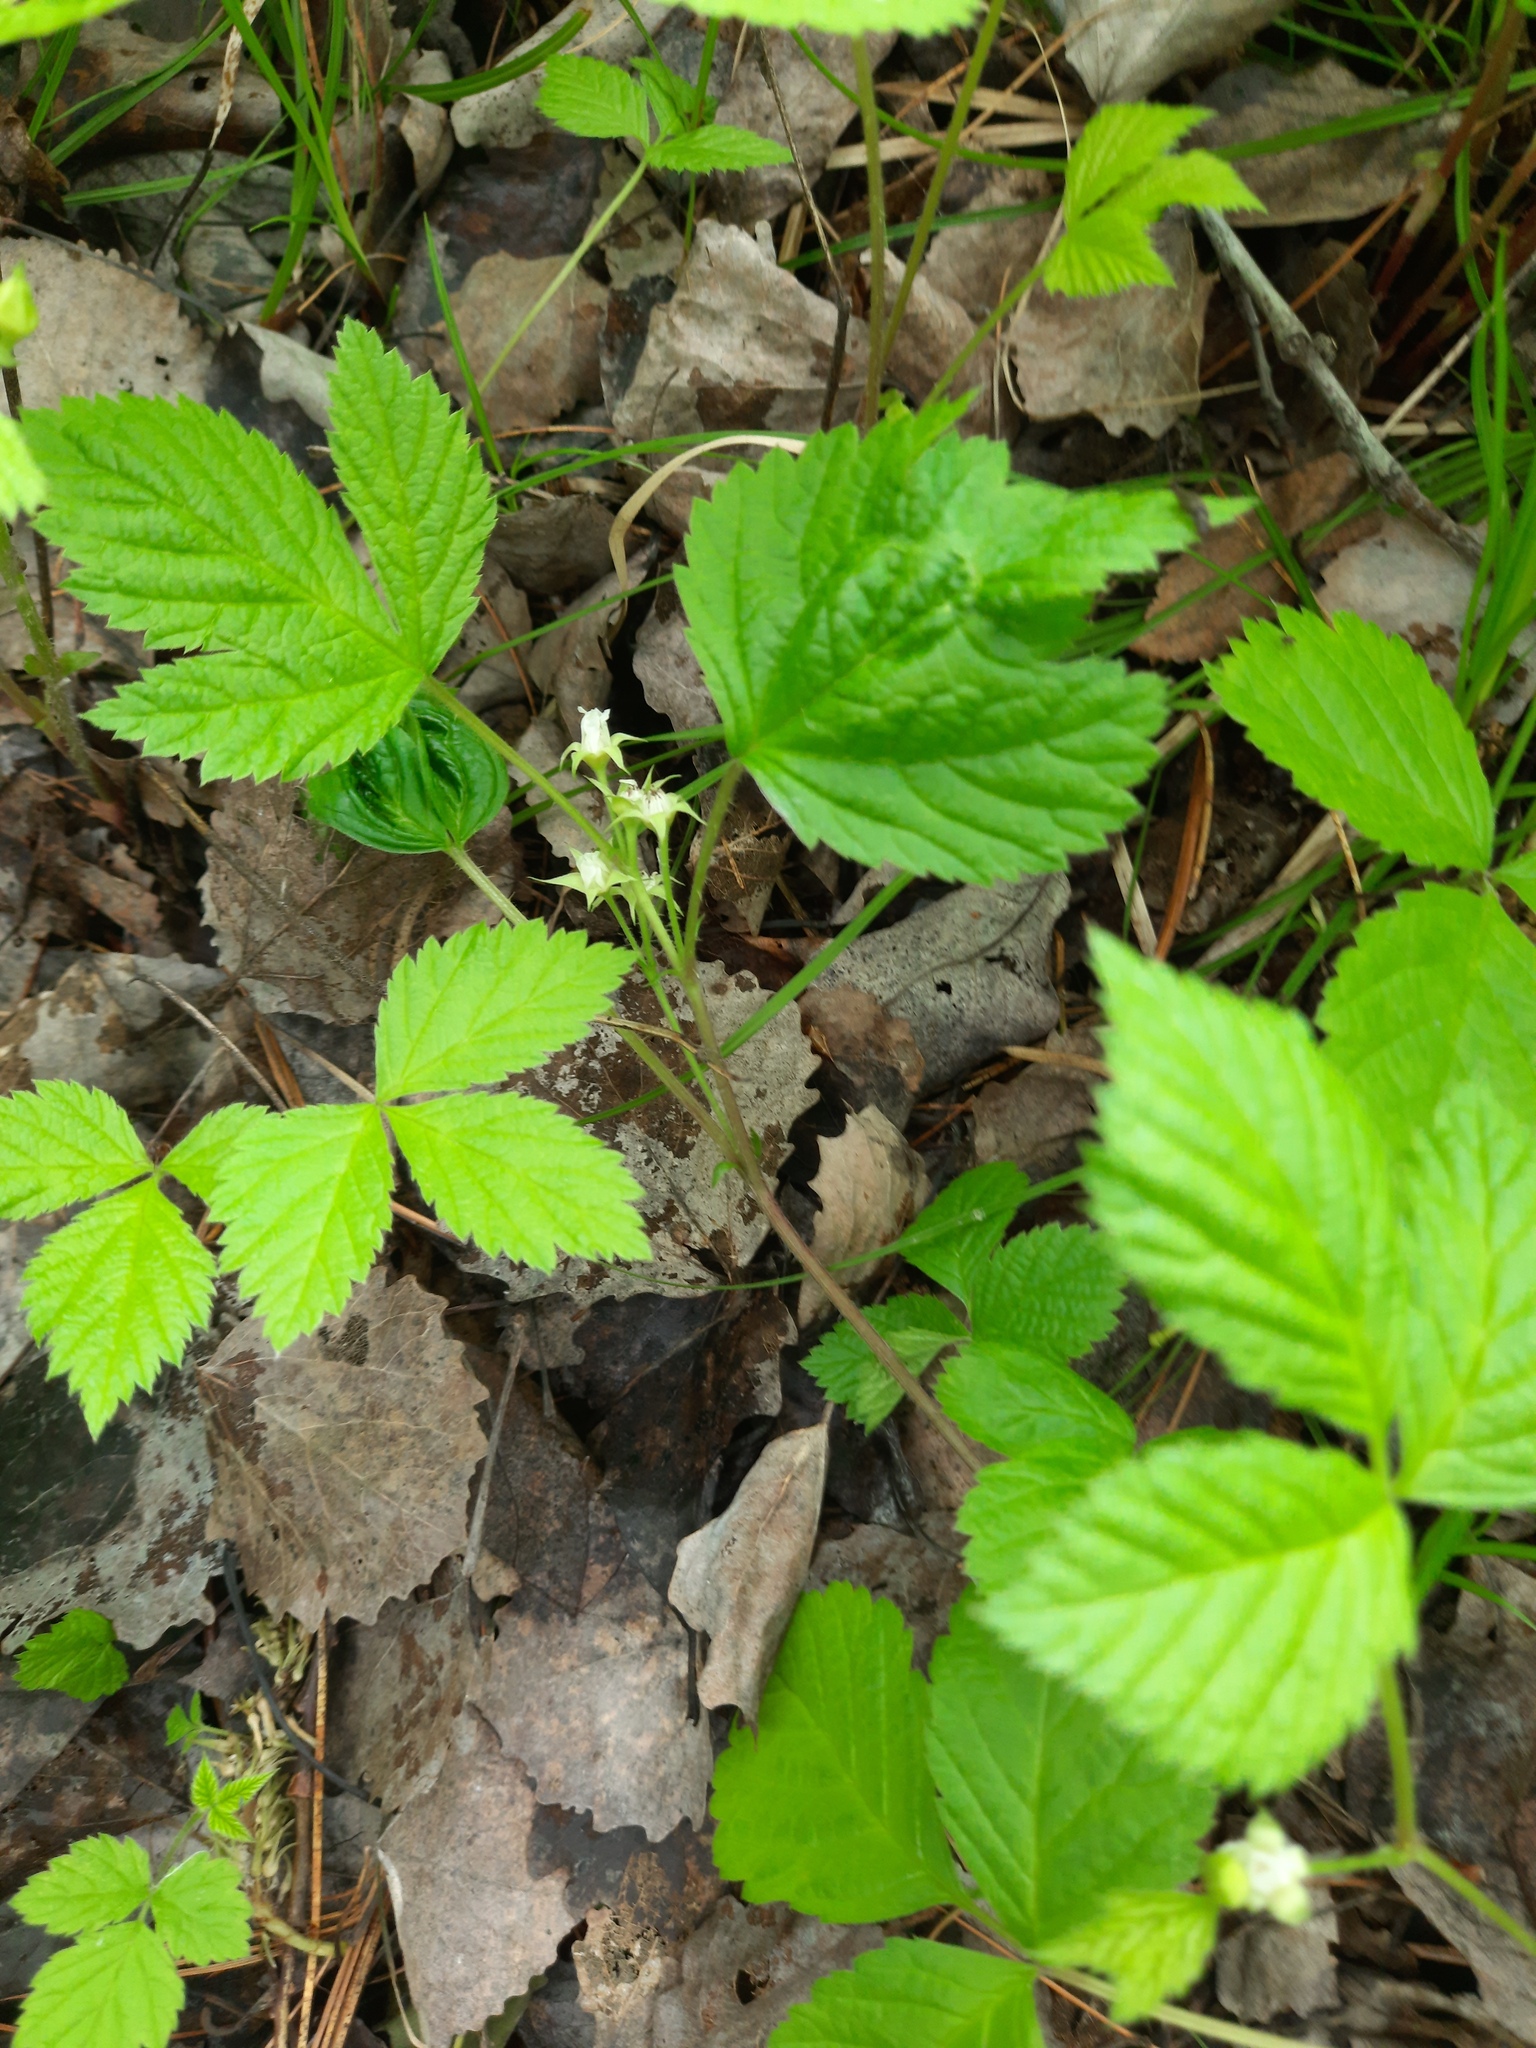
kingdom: Plantae
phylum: Tracheophyta
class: Magnoliopsida
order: Rosales
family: Rosaceae
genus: Rubus
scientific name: Rubus saxatilis
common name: Stone bramble
